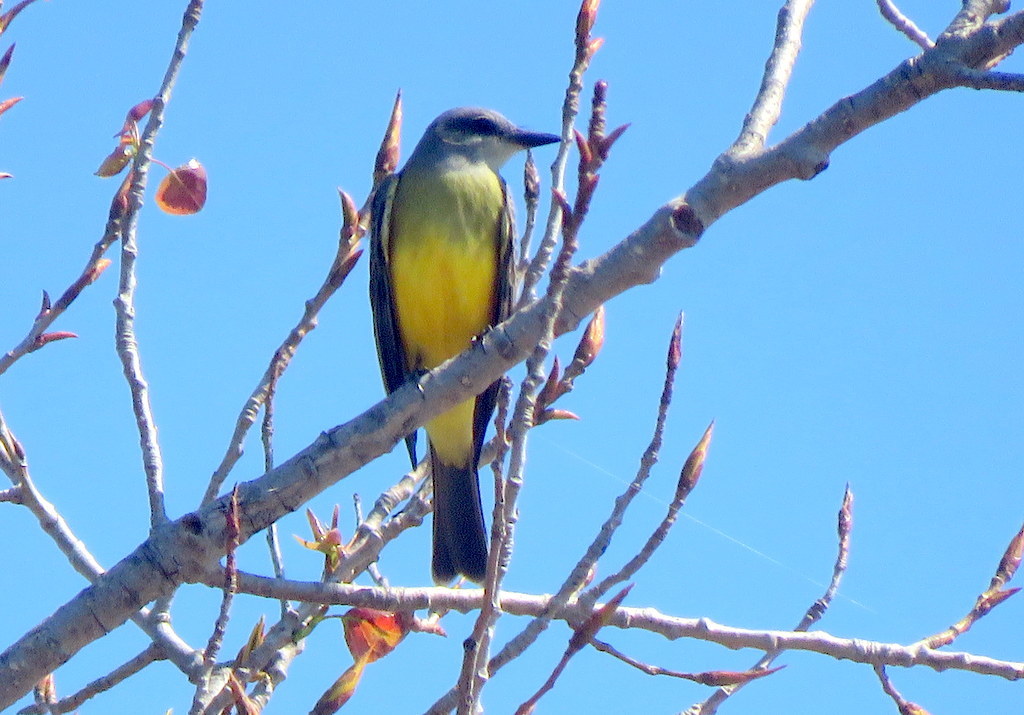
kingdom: Animalia
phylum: Chordata
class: Aves
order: Passeriformes
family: Tyrannidae
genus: Tyrannus
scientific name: Tyrannus melancholicus
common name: Tropical kingbird
